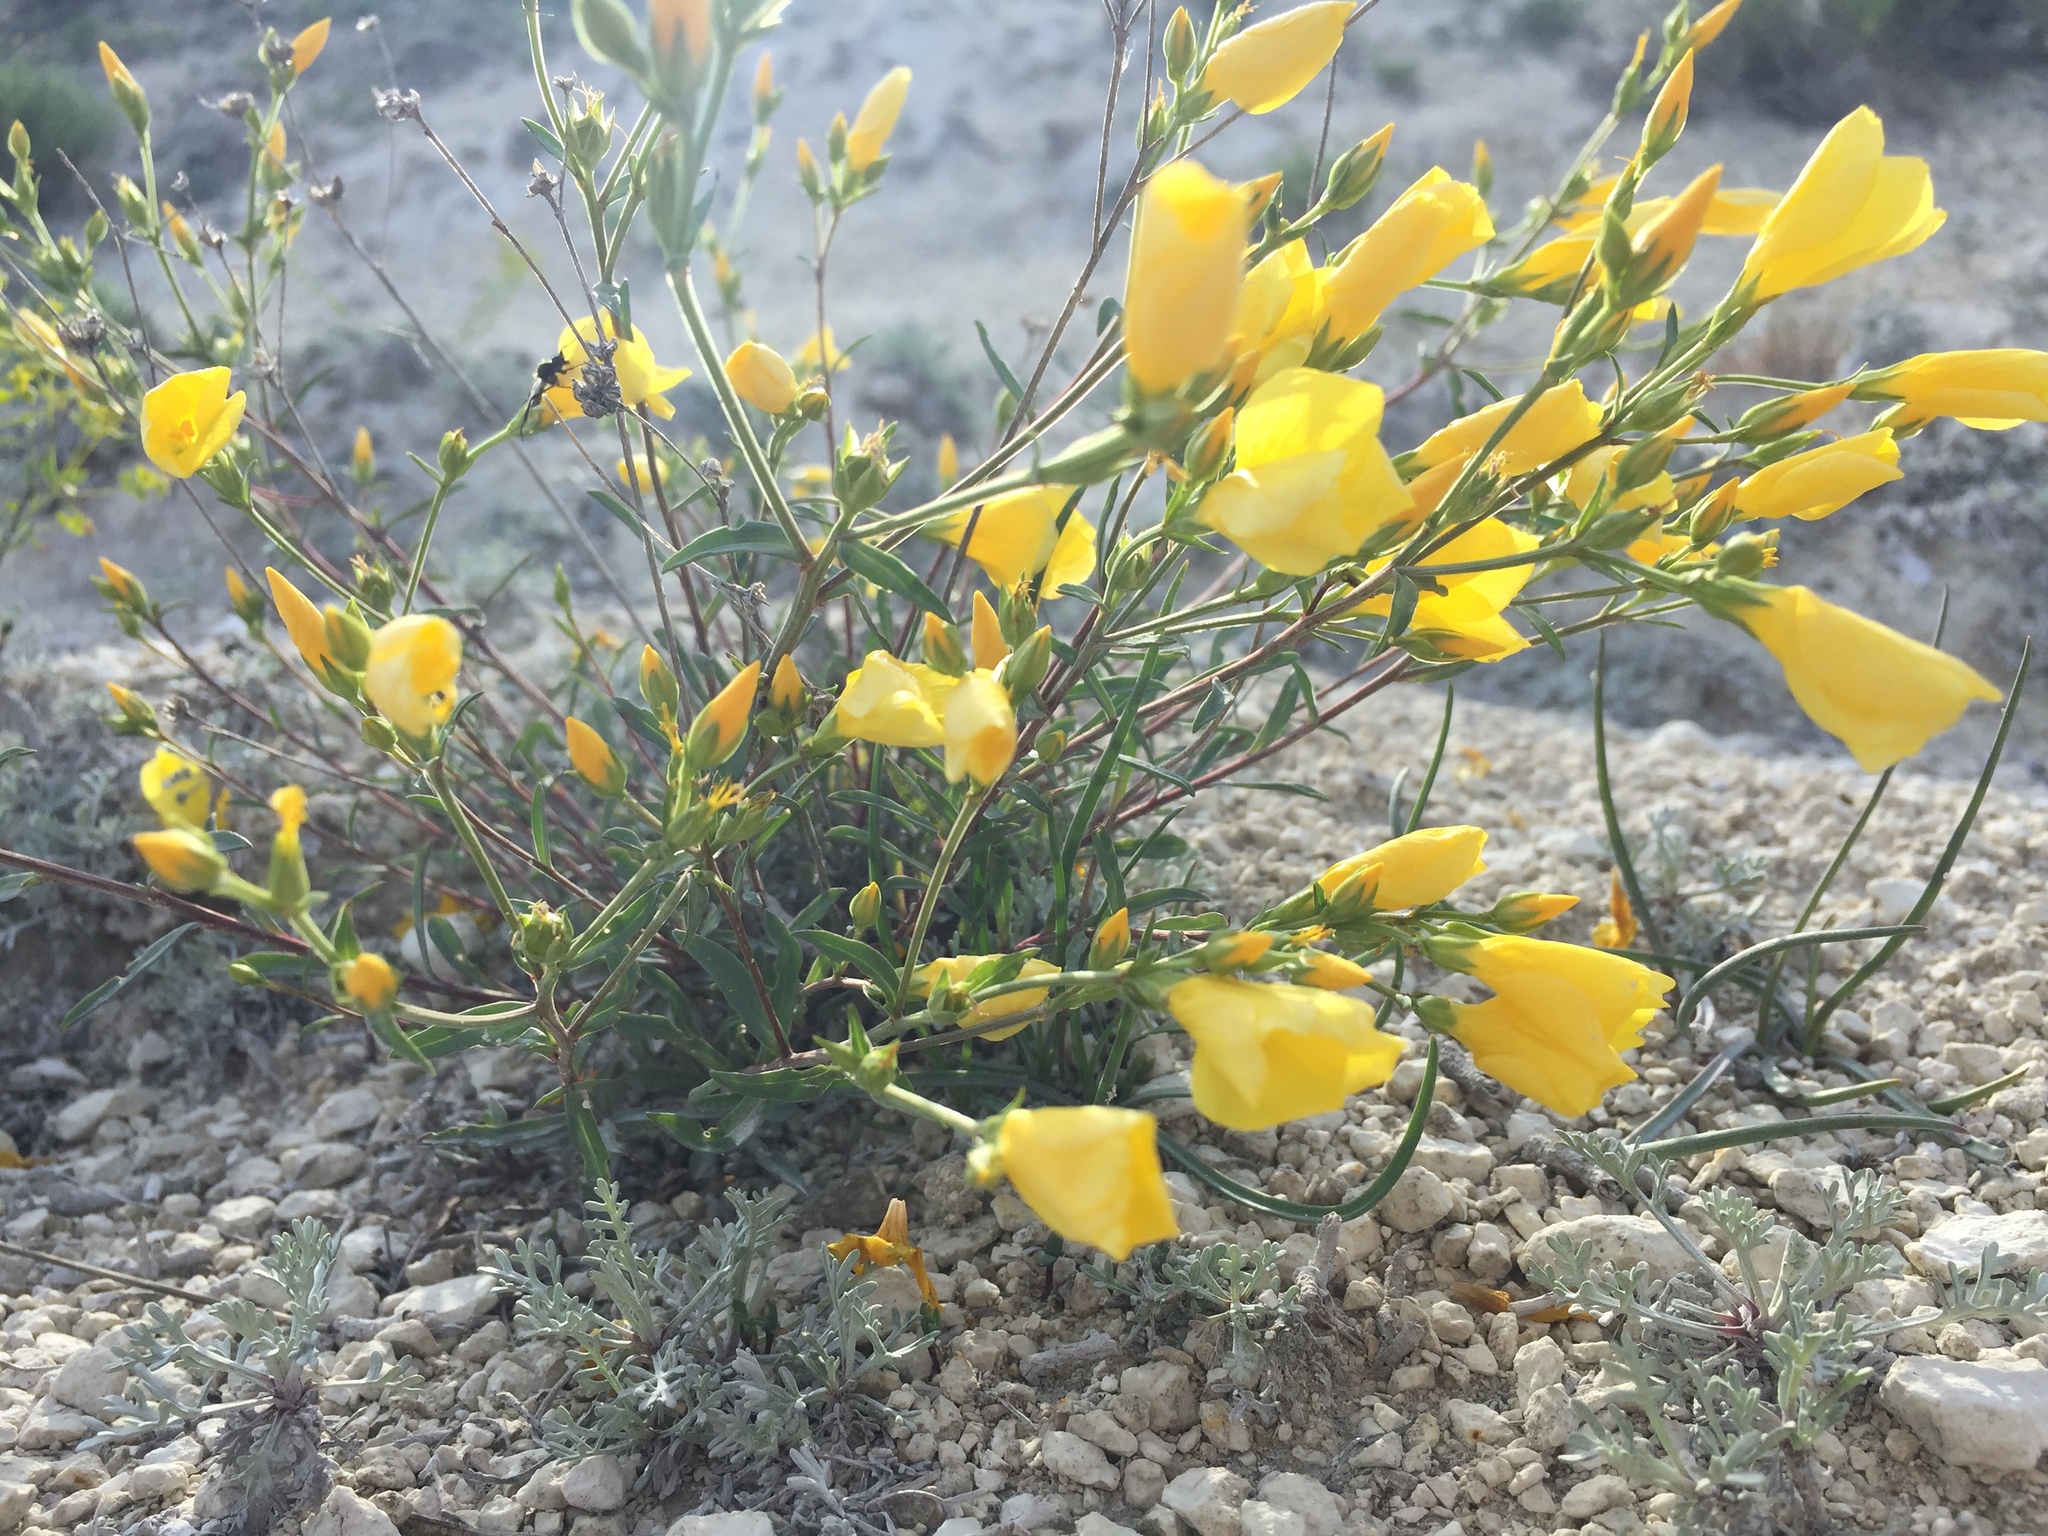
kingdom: Plantae
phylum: Tracheophyta
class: Magnoliopsida
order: Malpighiales
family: Linaceae
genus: Linum
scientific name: Linum ucranicum
